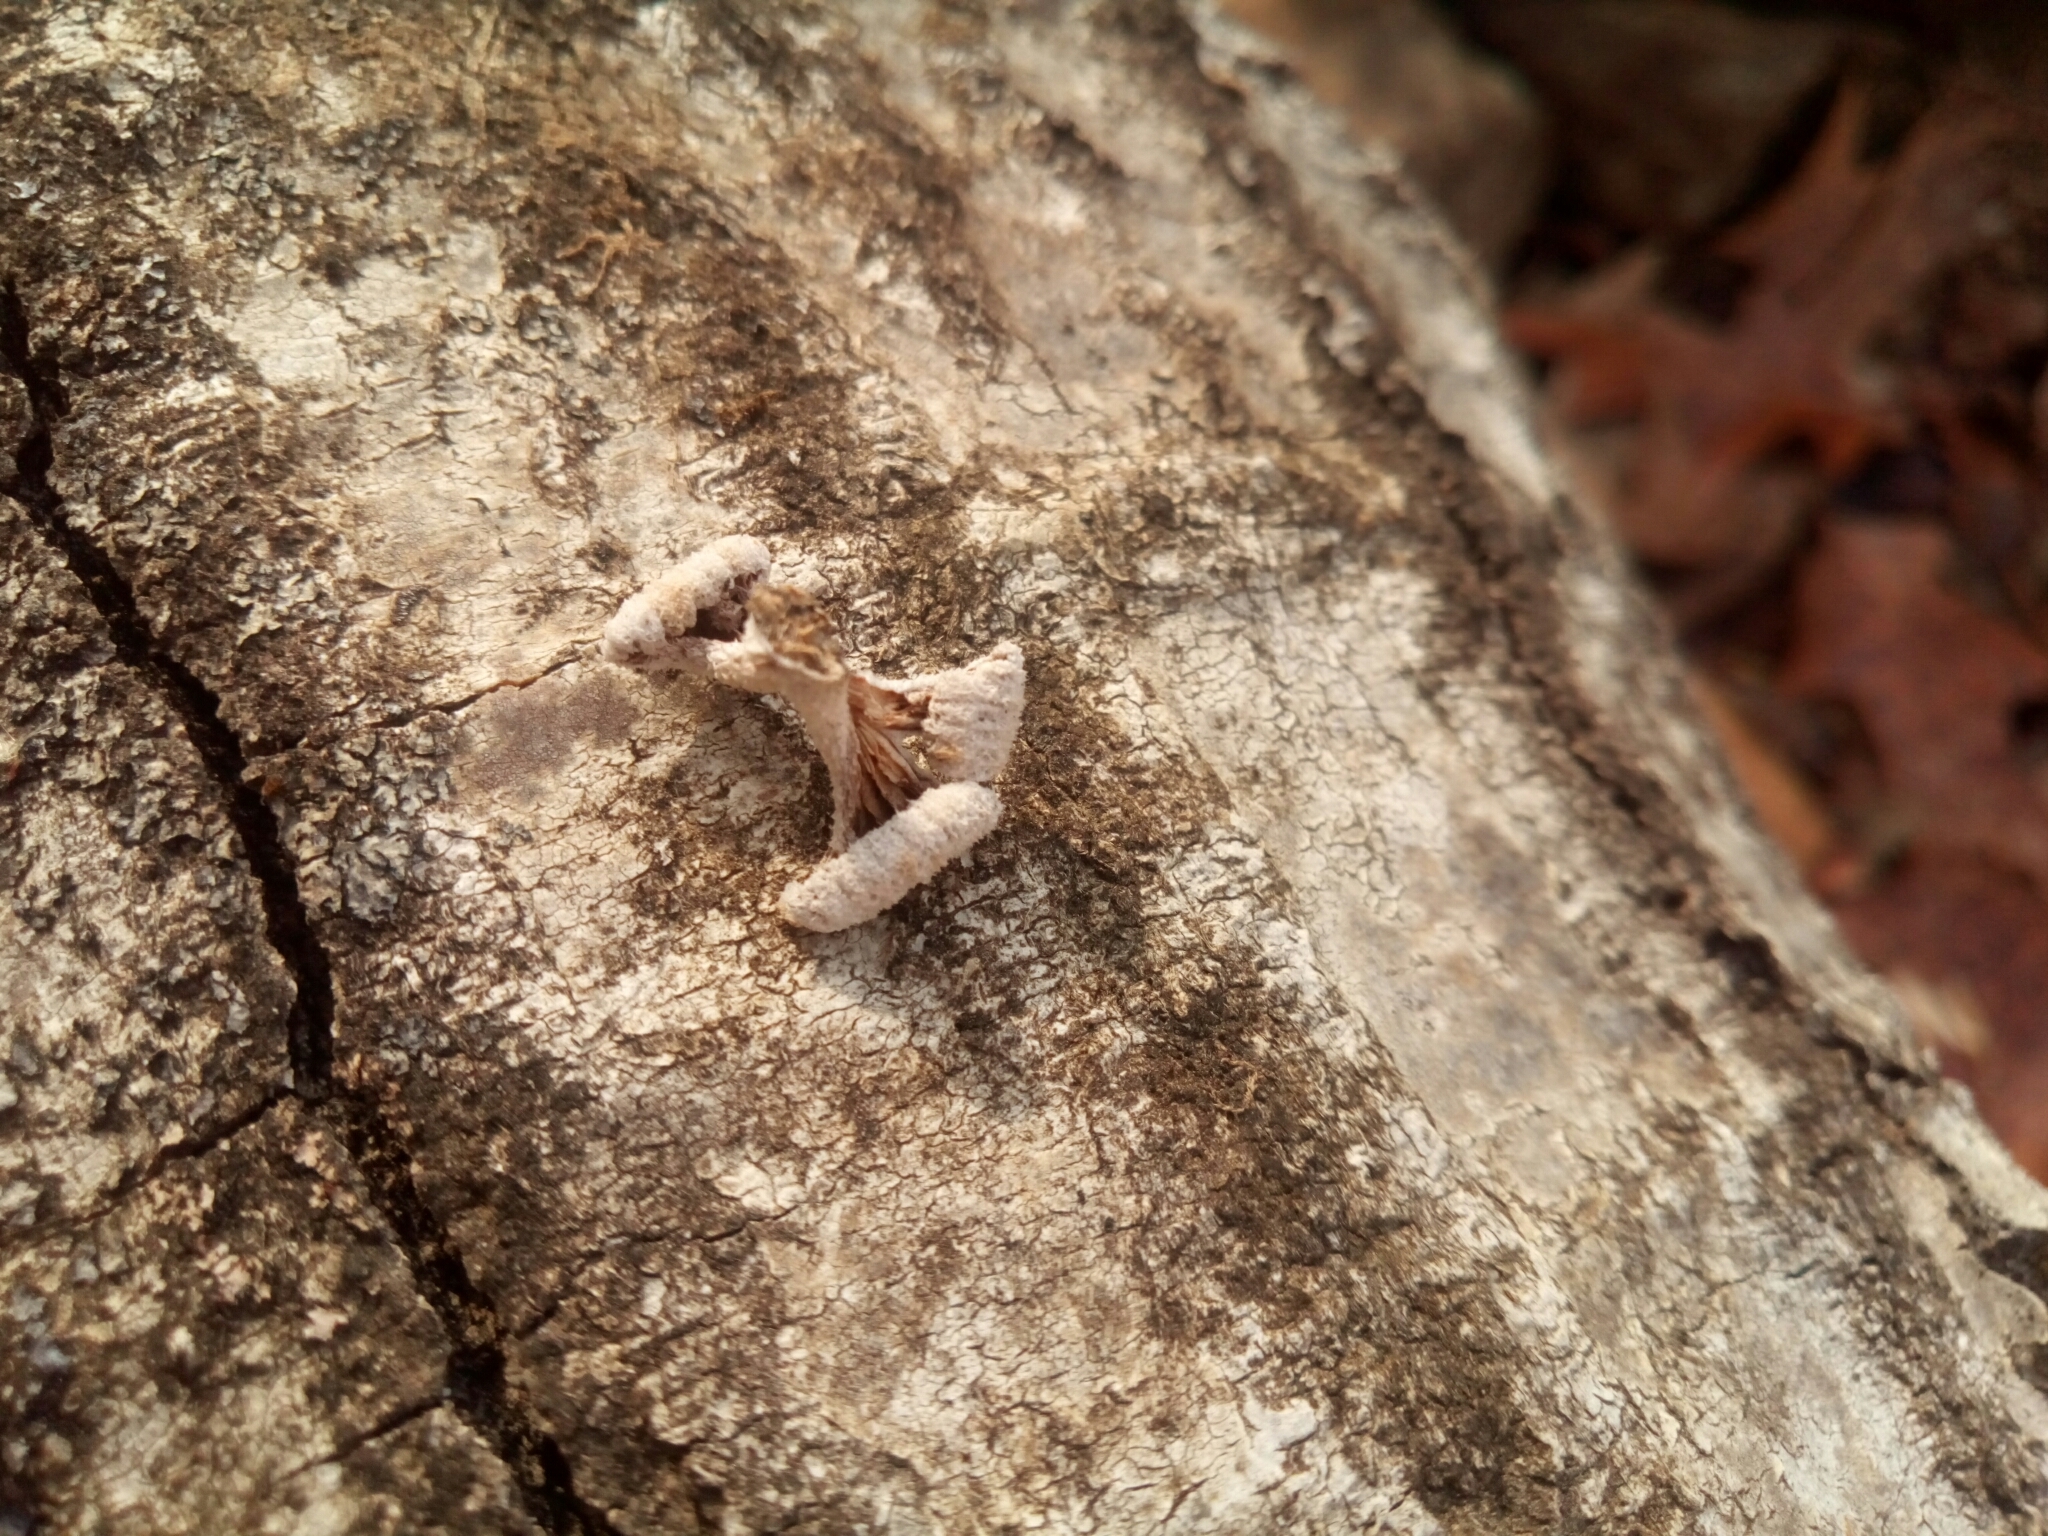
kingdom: Fungi
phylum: Basidiomycota
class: Agaricomycetes
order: Agaricales
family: Schizophyllaceae
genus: Schizophyllum
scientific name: Schizophyllum commune
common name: Common porecrust
